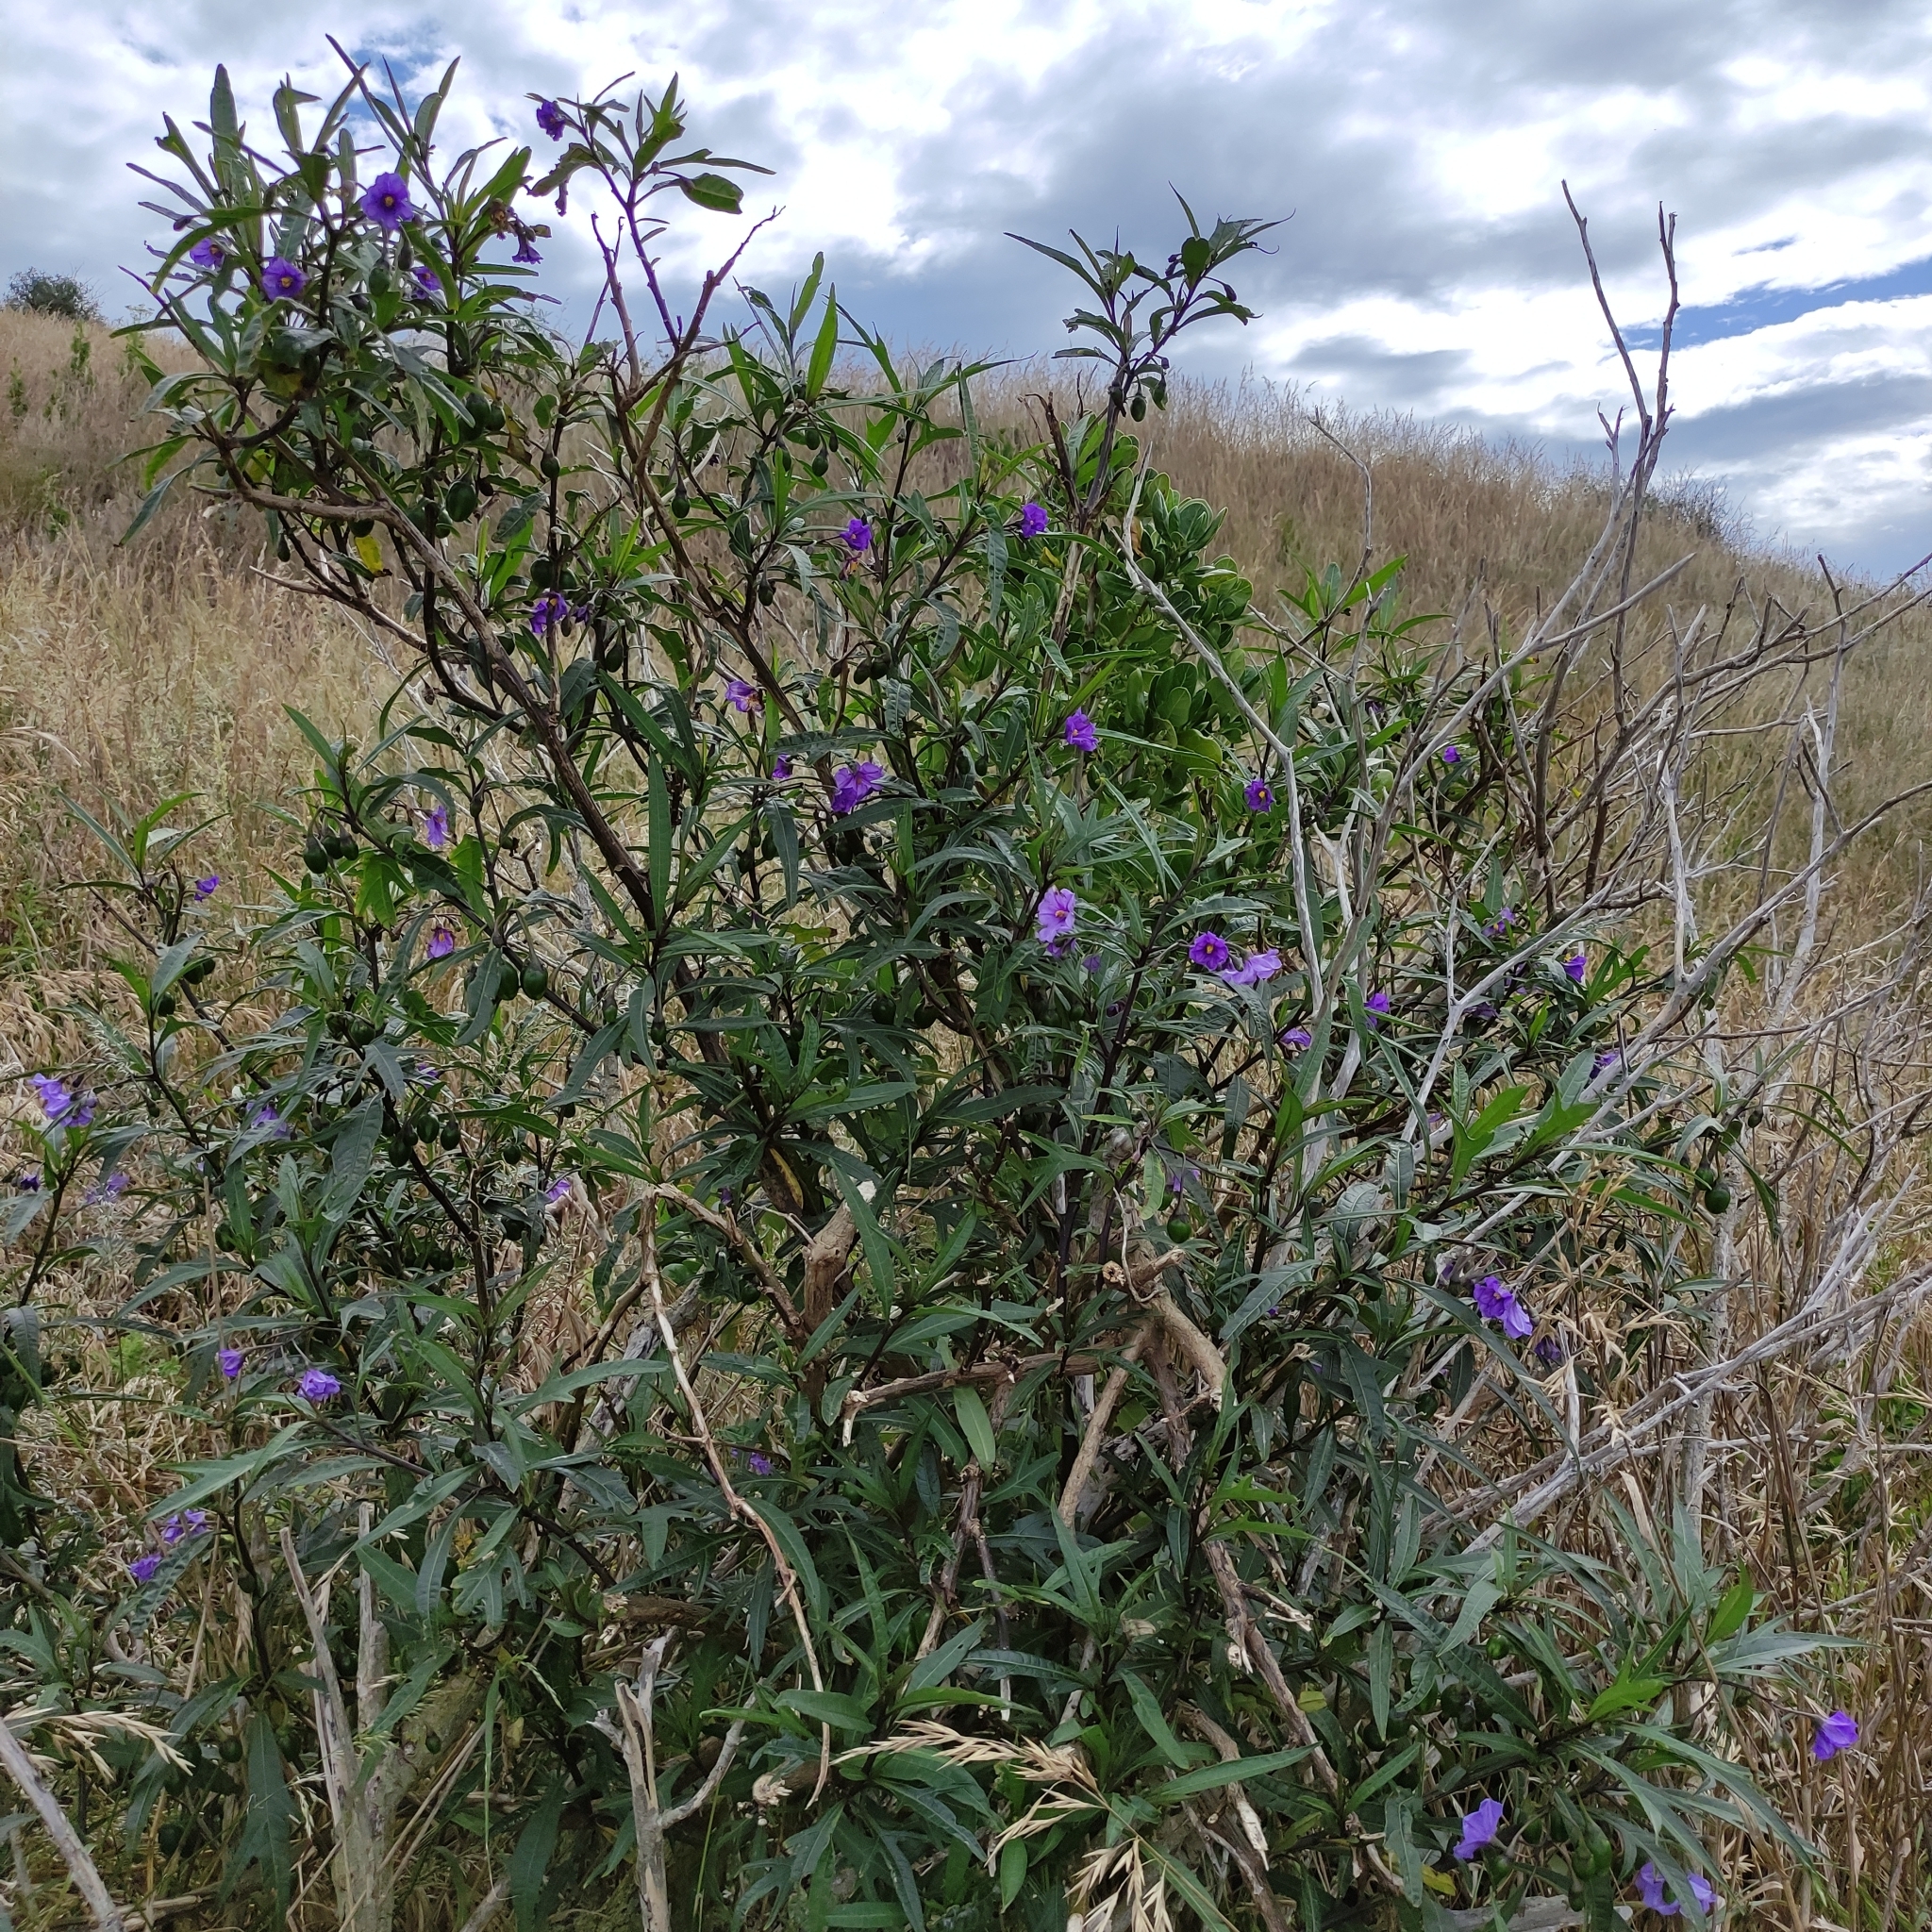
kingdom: Plantae
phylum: Tracheophyta
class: Magnoliopsida
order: Solanales
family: Solanaceae
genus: Solanum
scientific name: Solanum laciniatum
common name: Kangaroo-apple
